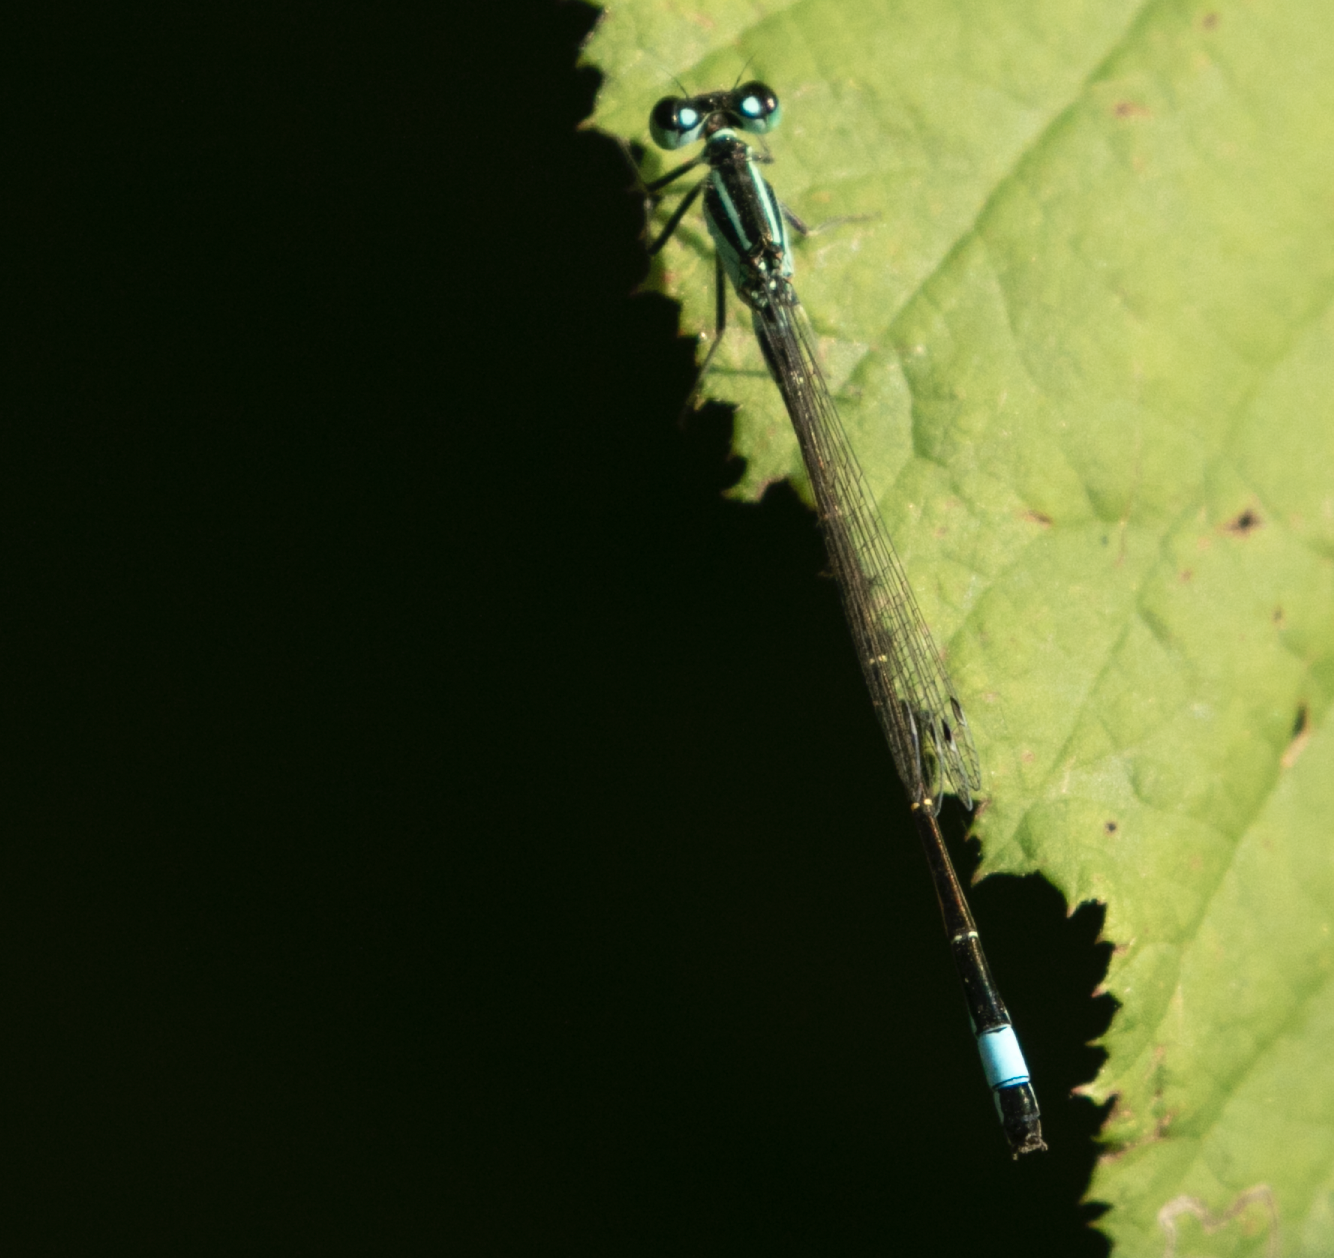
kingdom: Animalia
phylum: Arthropoda
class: Insecta
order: Odonata
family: Coenagrionidae
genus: Ischnura
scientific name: Ischnura elegans
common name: Blue-tailed damselfly
